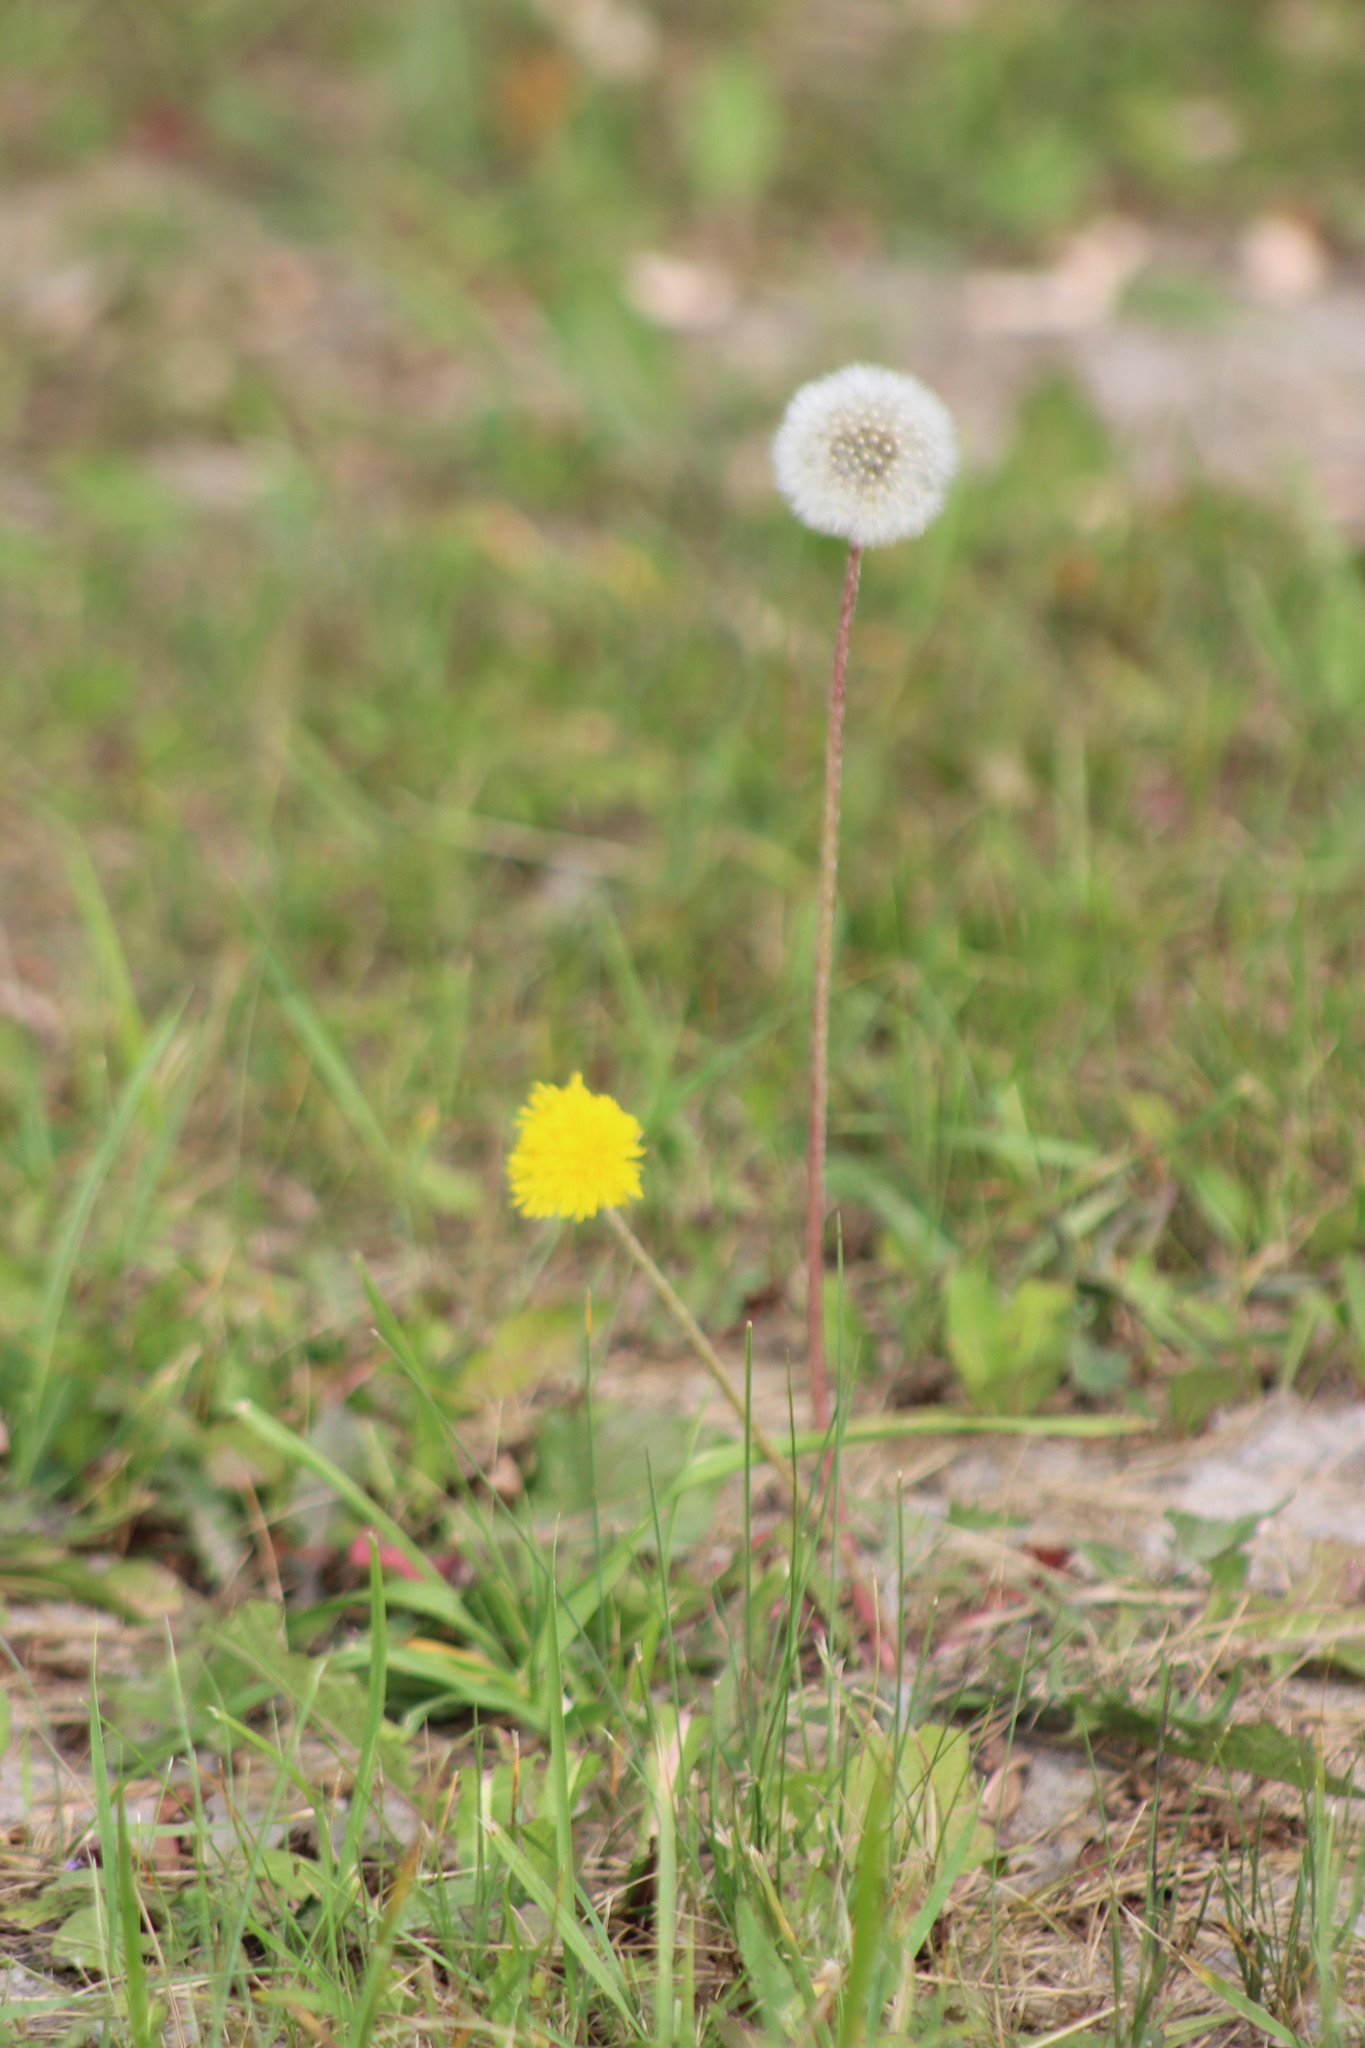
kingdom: Plantae
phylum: Tracheophyta
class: Magnoliopsida
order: Asterales
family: Asteraceae
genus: Taraxacum
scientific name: Taraxacum officinale
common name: Common dandelion
